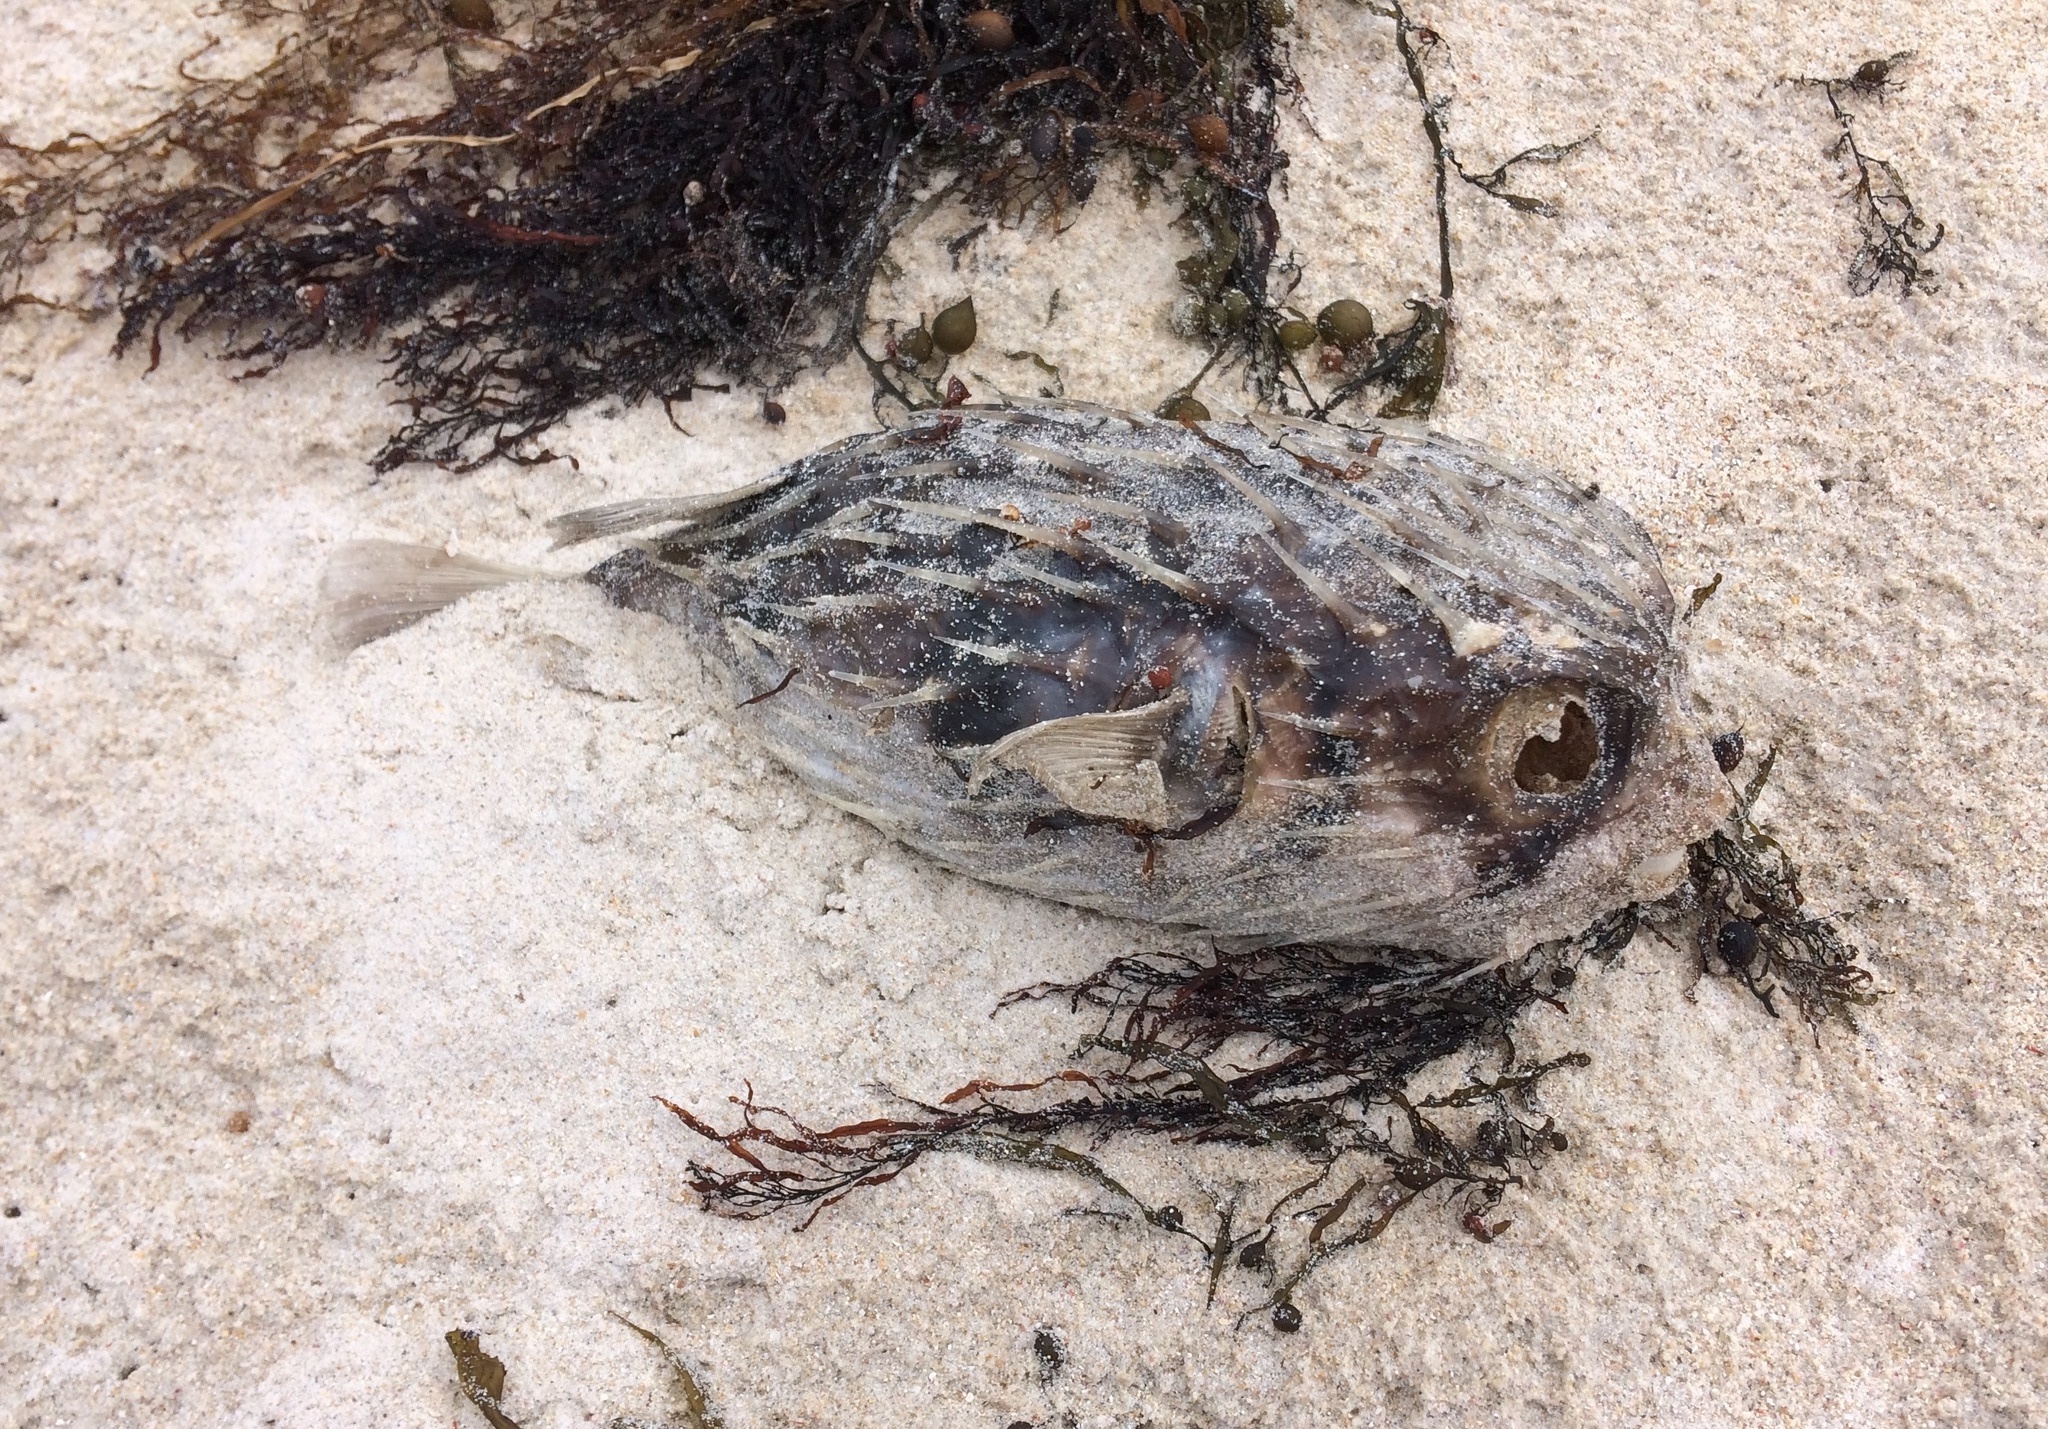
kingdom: Animalia
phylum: Chordata
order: Tetraodontiformes
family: Diodontidae
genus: Diodon
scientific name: Diodon nicthemerus
